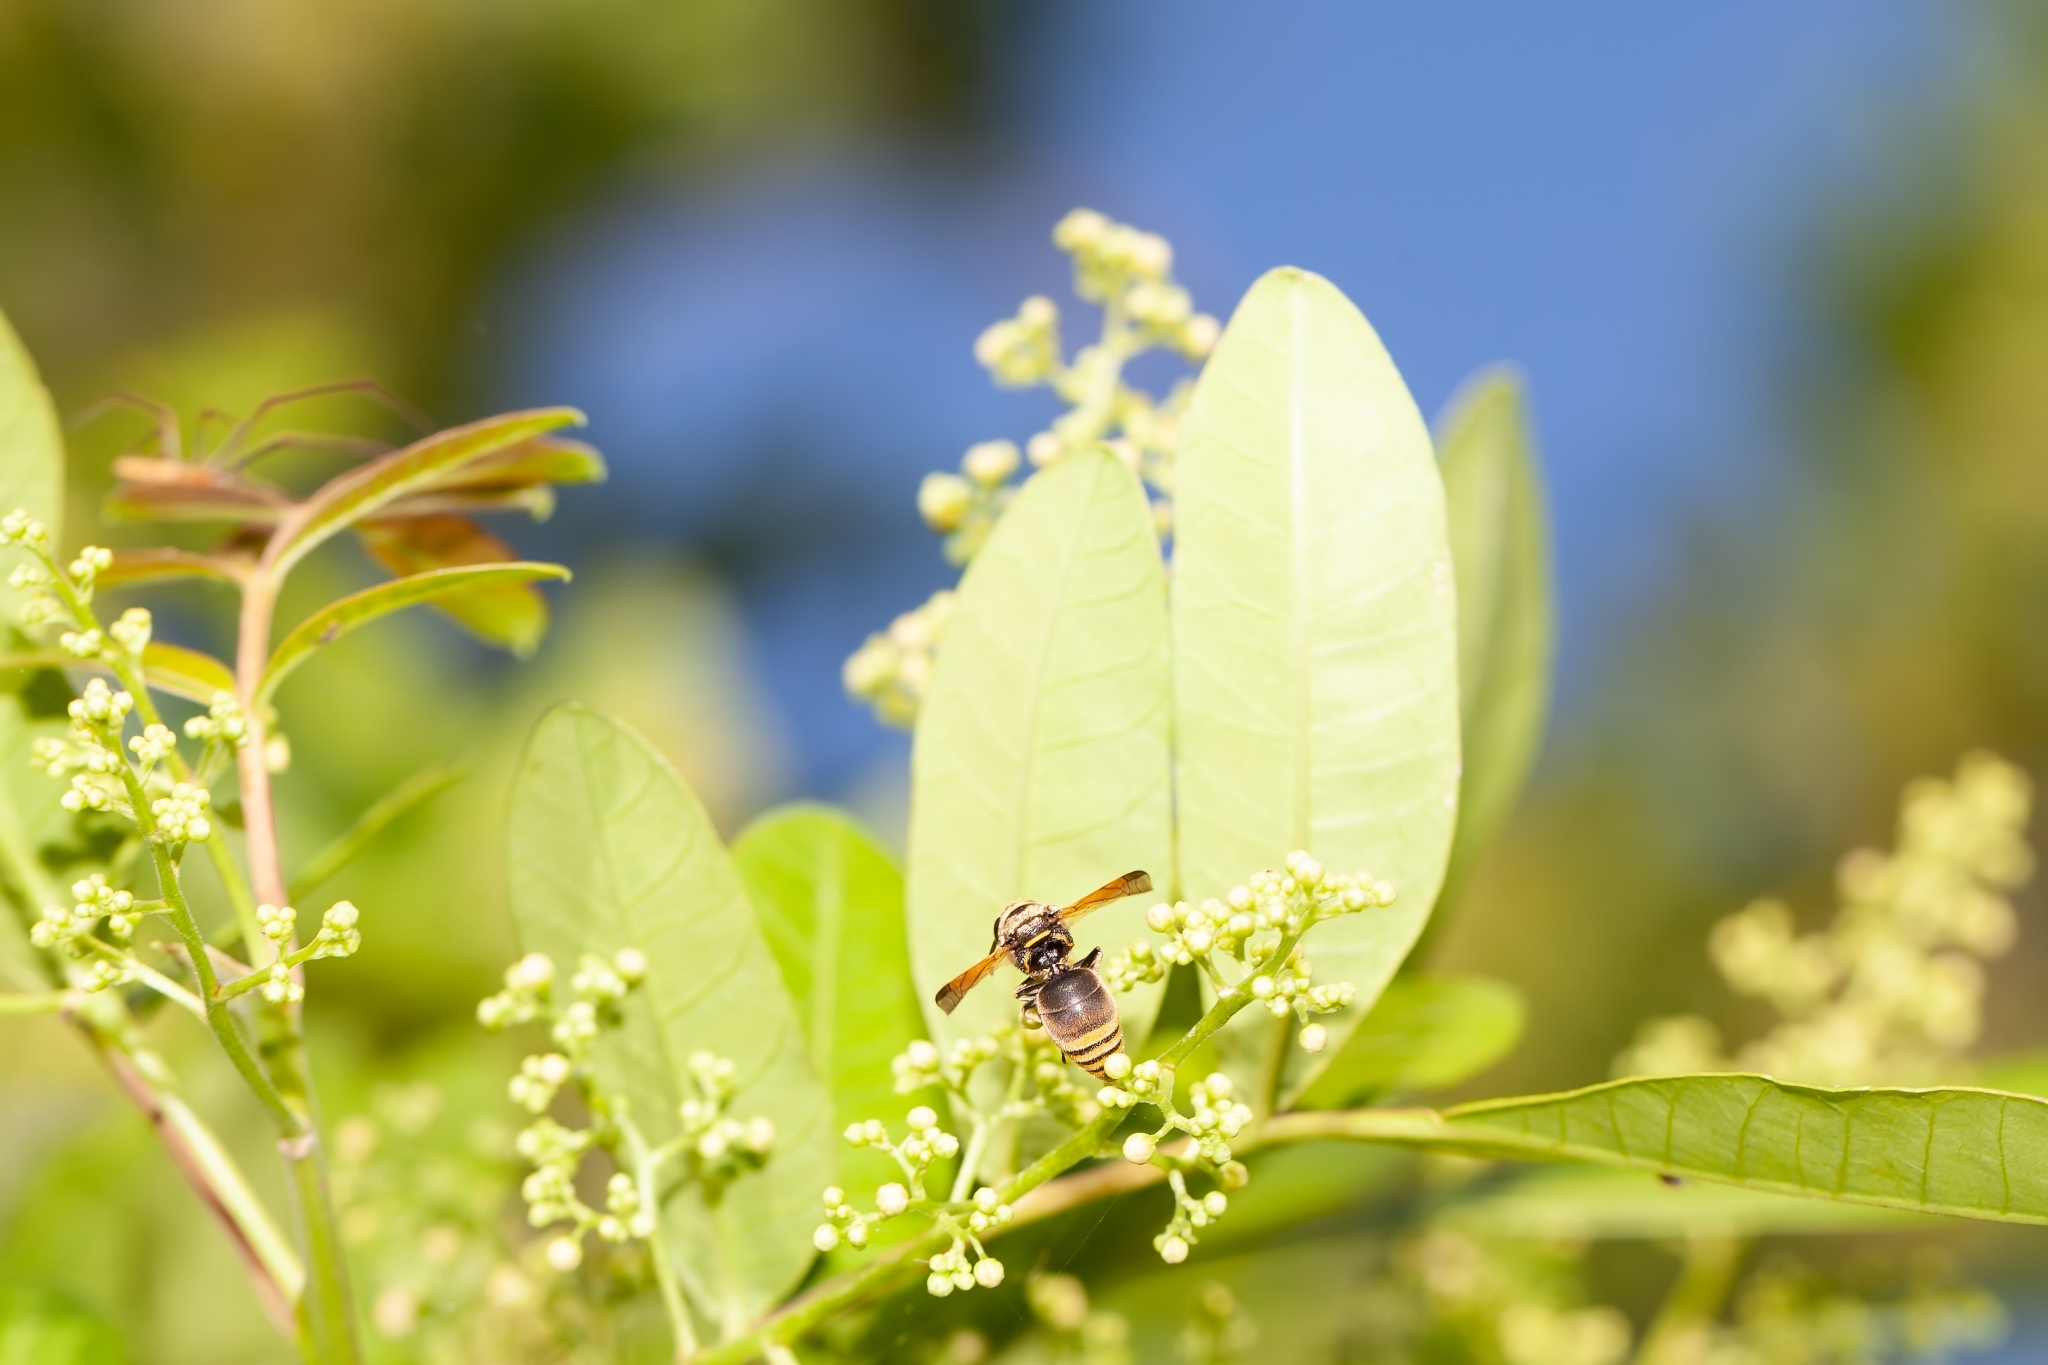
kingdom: Animalia
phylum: Arthropoda
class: Insecta
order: Hymenoptera
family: Eumenidae
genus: Pachodynerus
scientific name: Pachodynerus nasidens
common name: Key hole wasp
